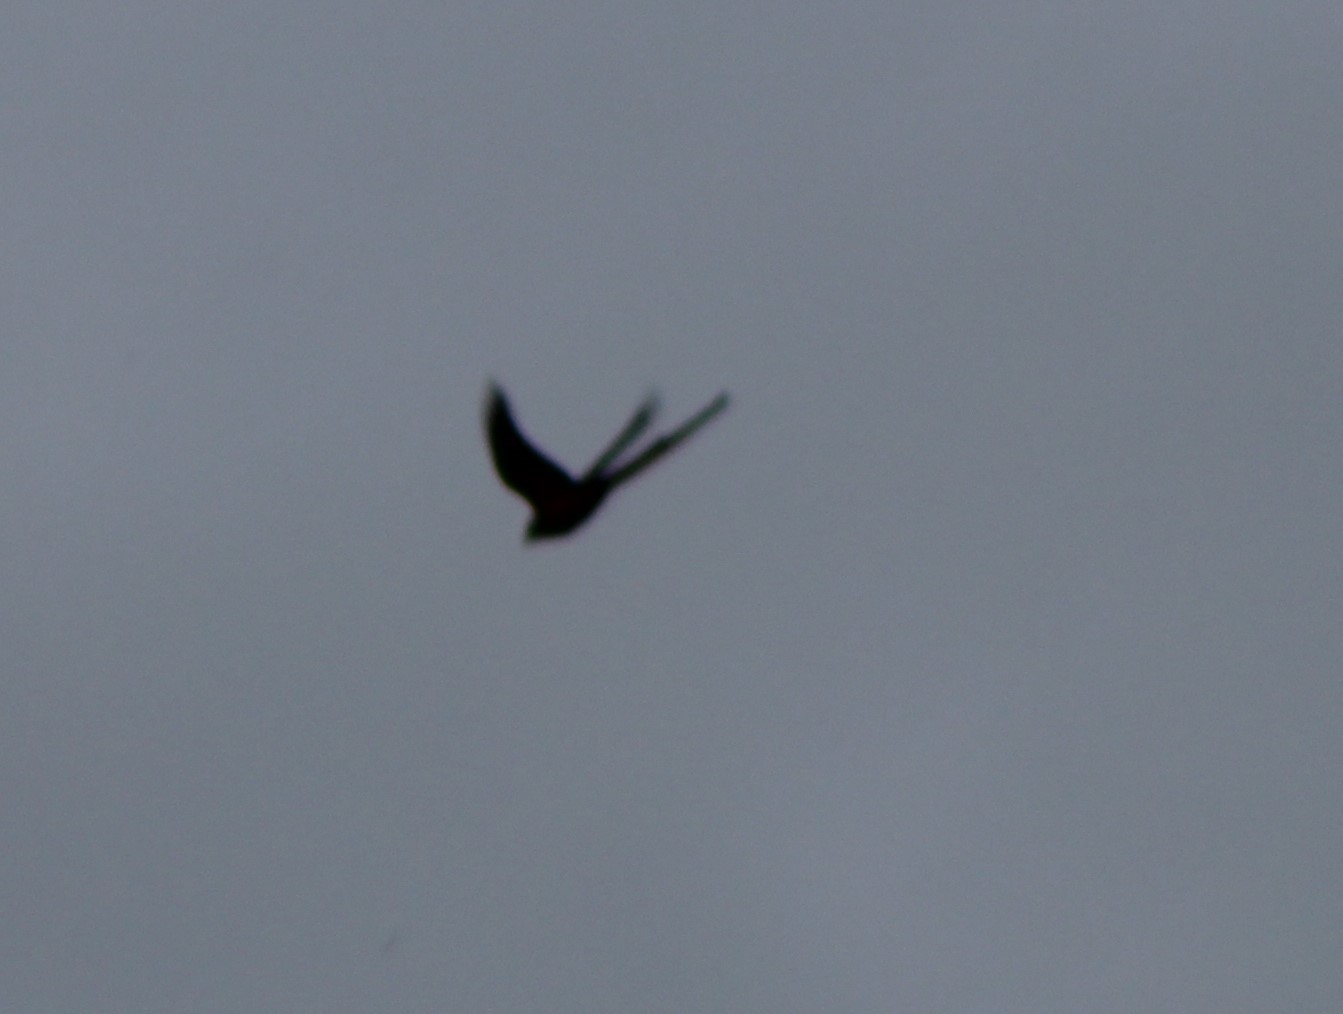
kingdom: Animalia
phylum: Chordata
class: Aves
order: Passeriformes
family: Tyrannidae
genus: Tyrannus
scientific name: Tyrannus forficatus
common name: Scissor-tailed flycatcher
